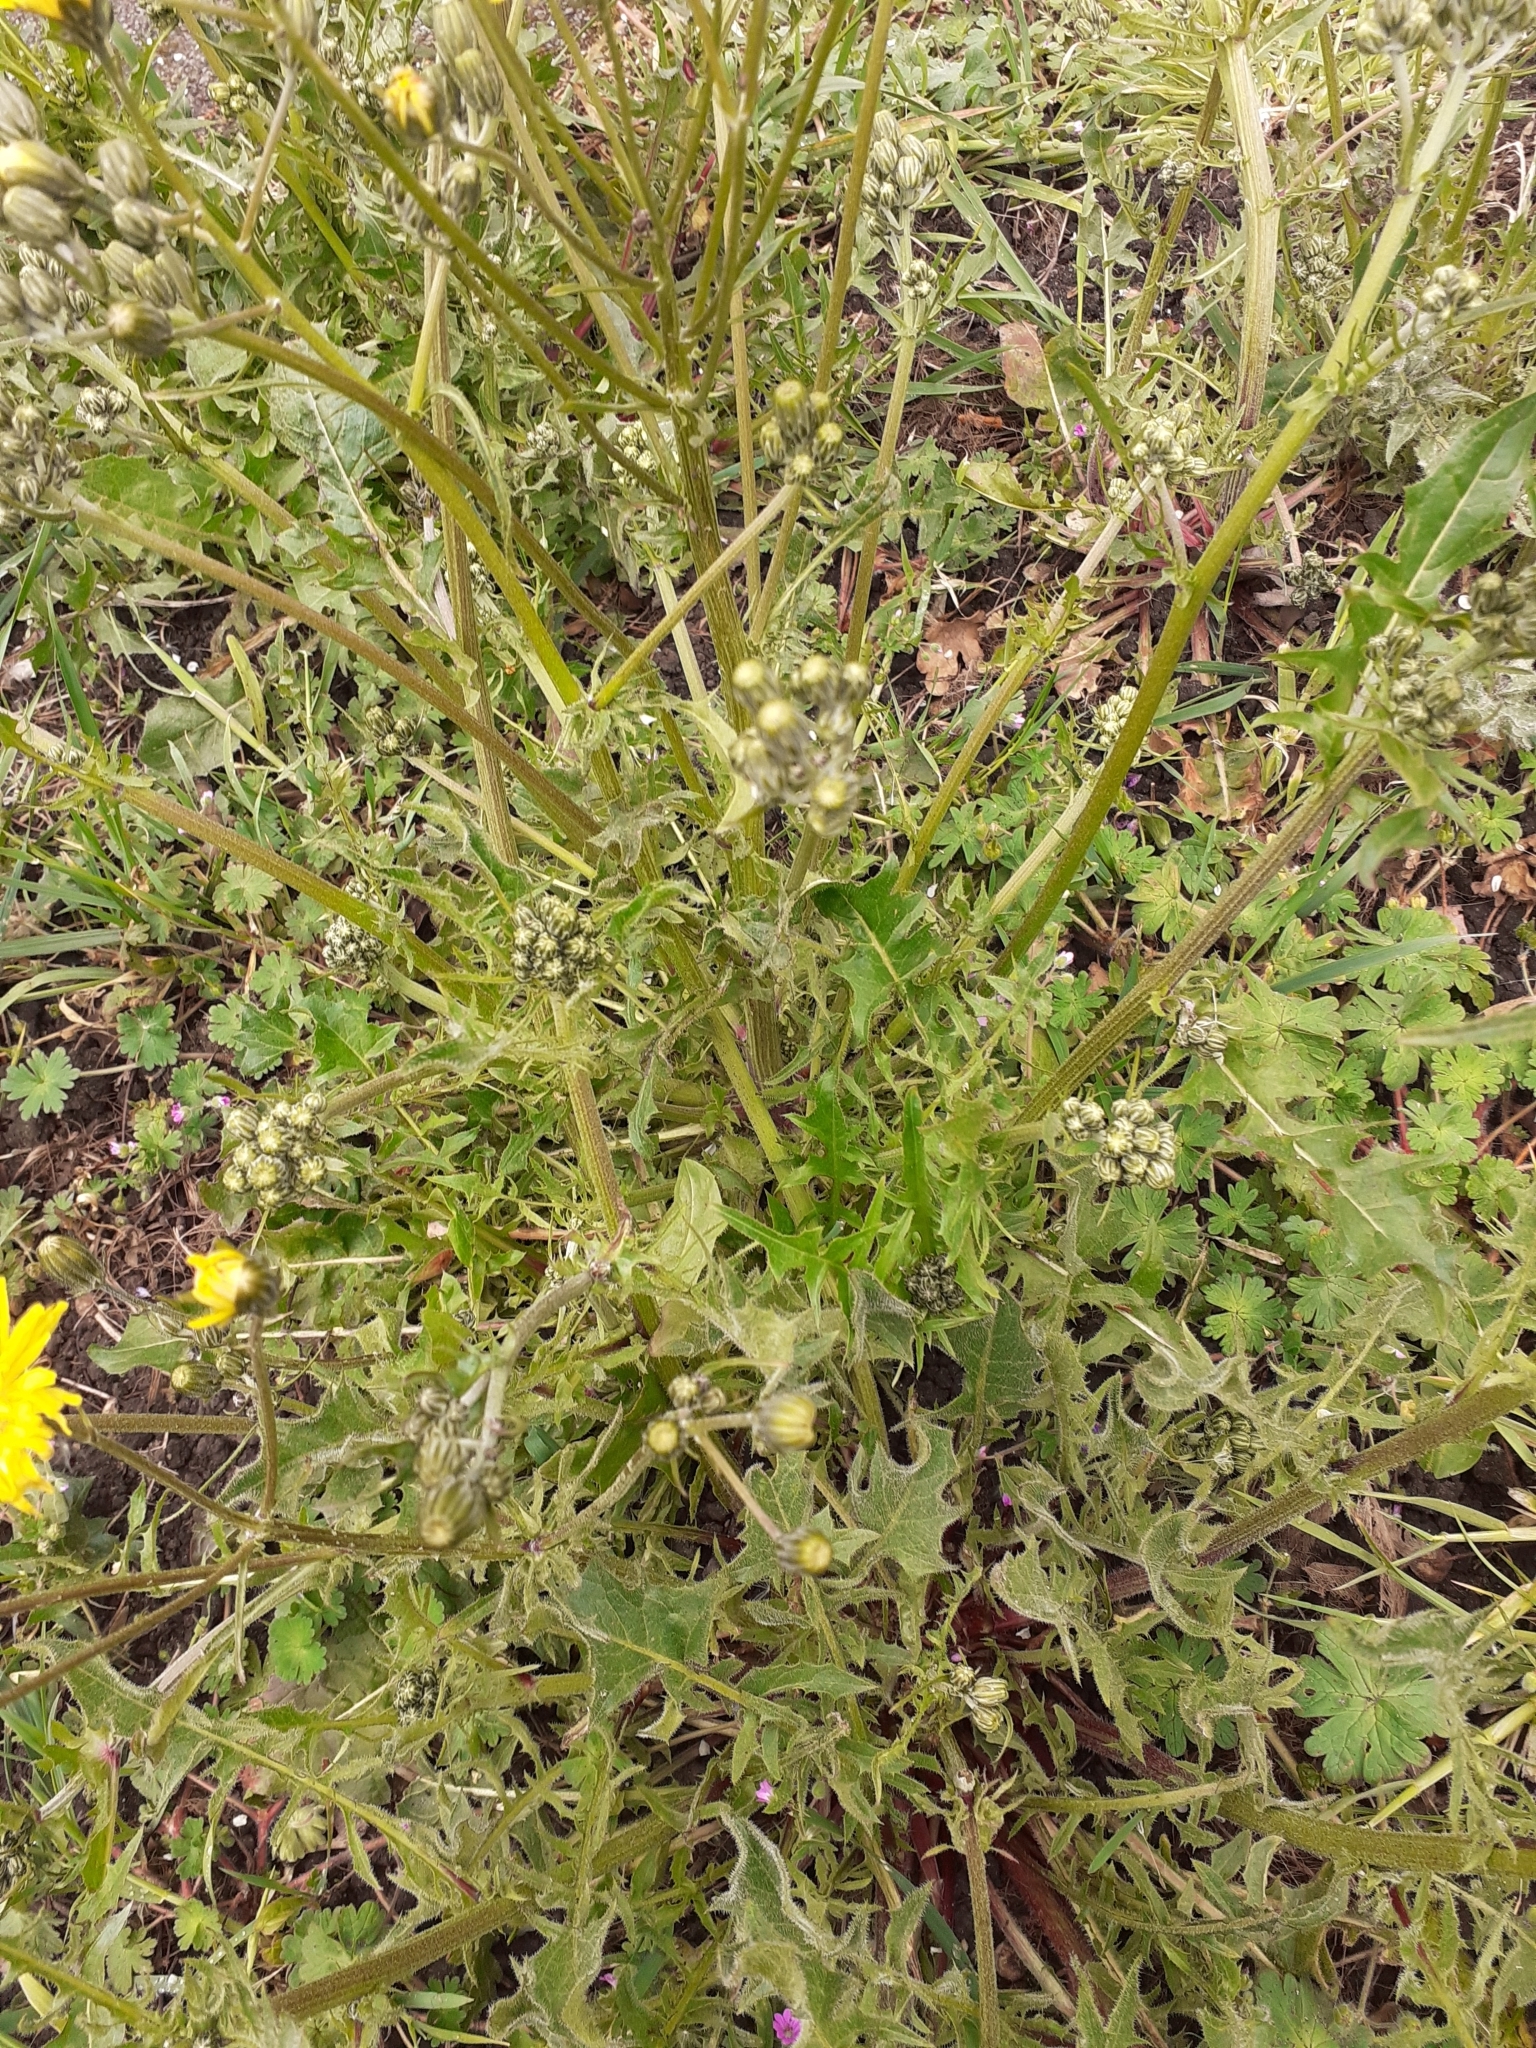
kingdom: Plantae
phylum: Tracheophyta
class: Magnoliopsida
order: Asterales
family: Asteraceae
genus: Crepis
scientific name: Crepis vesicaria
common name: Beaked hawksbeard
